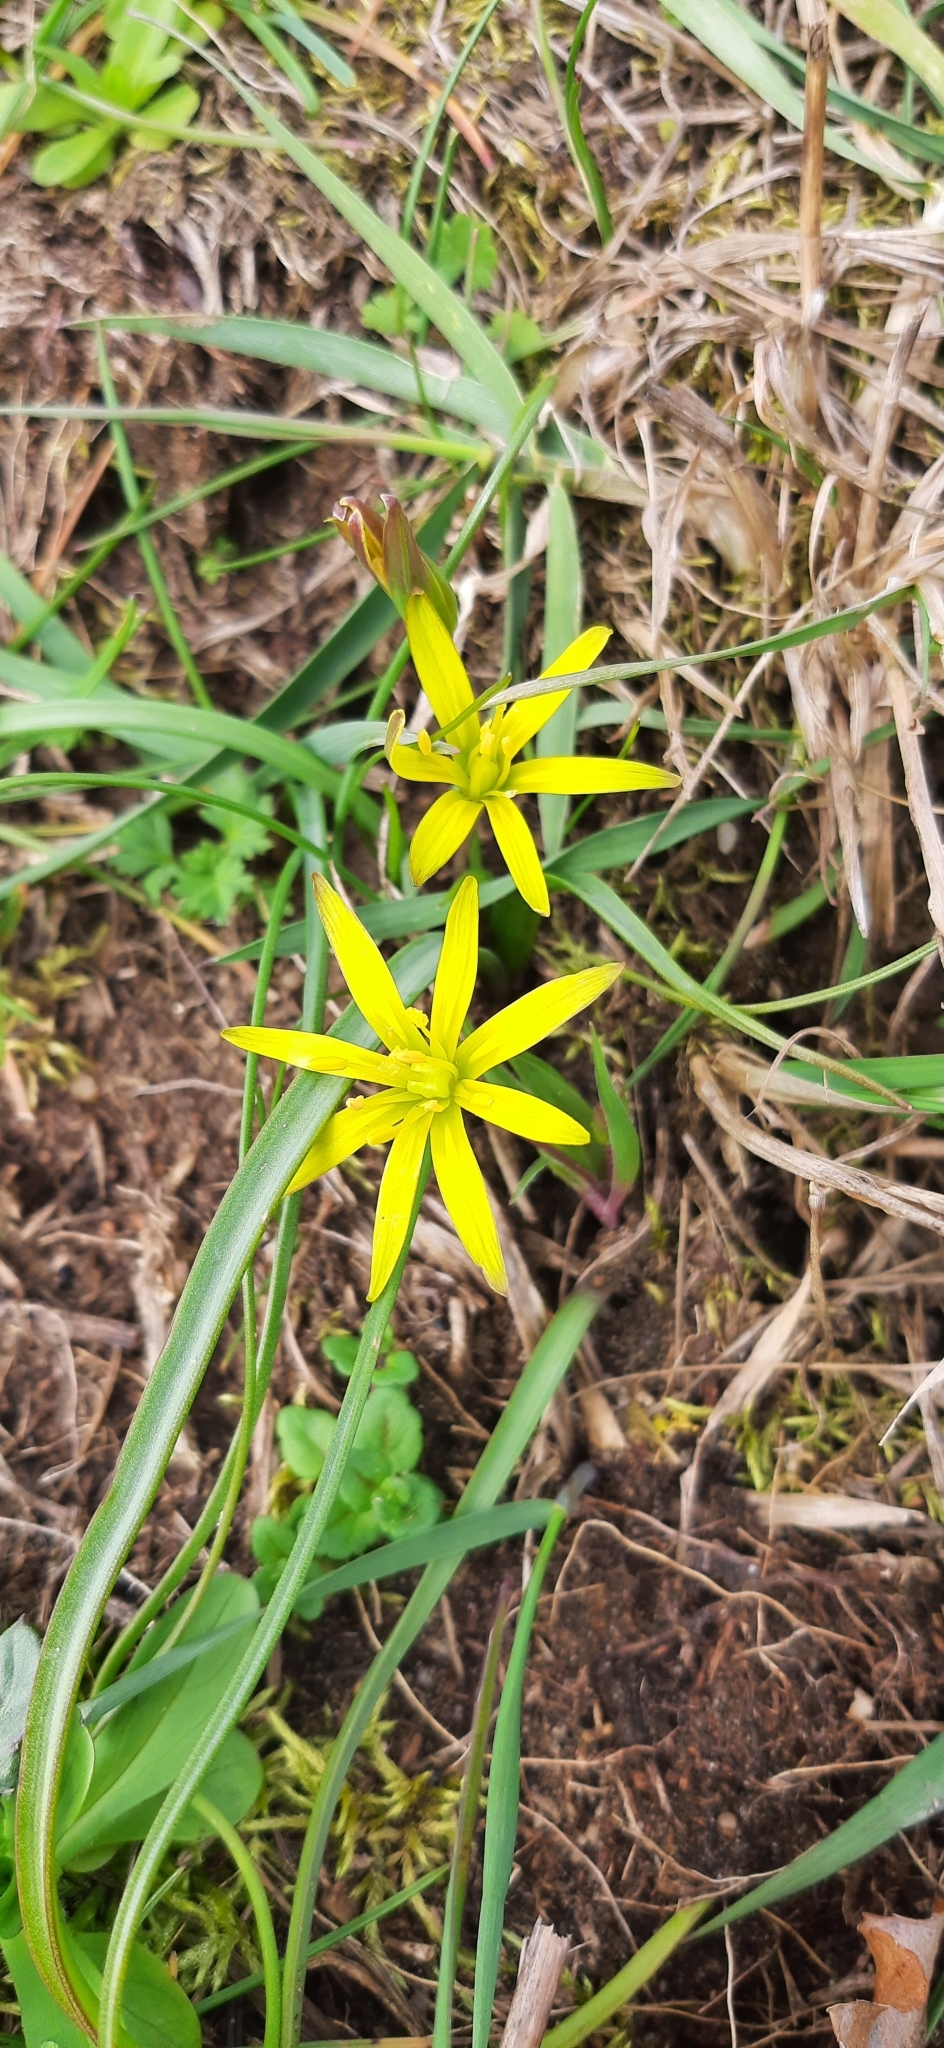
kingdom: Plantae
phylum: Tracheophyta
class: Liliopsida
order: Liliales
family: Liliaceae
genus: Gagea
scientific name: Gagea pratensis
